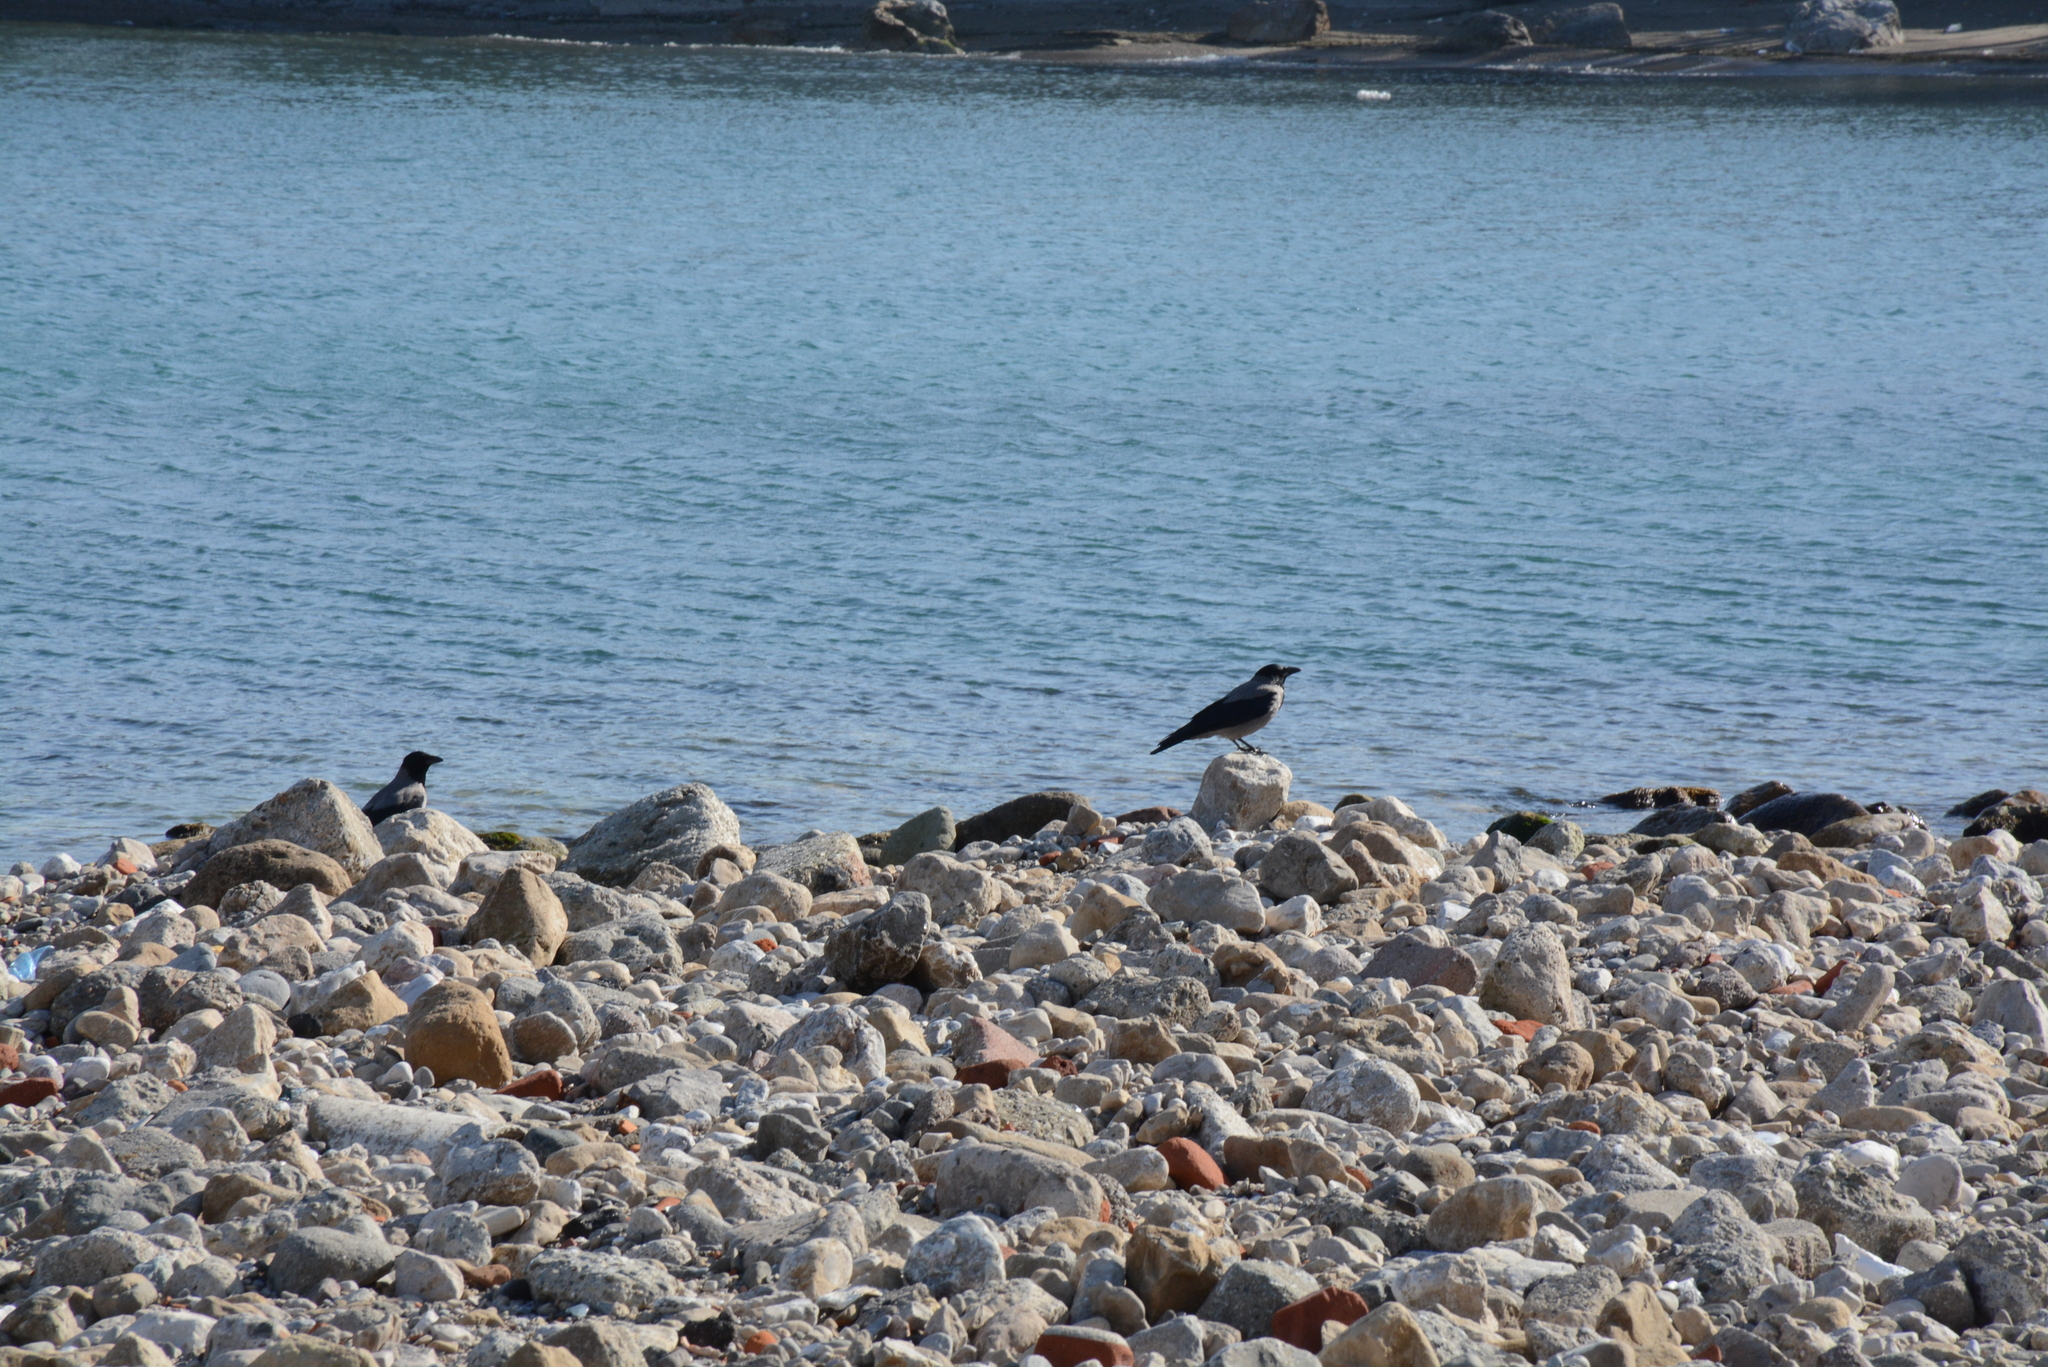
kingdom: Animalia
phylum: Chordata
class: Aves
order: Passeriformes
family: Corvidae
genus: Corvus
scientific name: Corvus cornix
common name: Hooded crow
